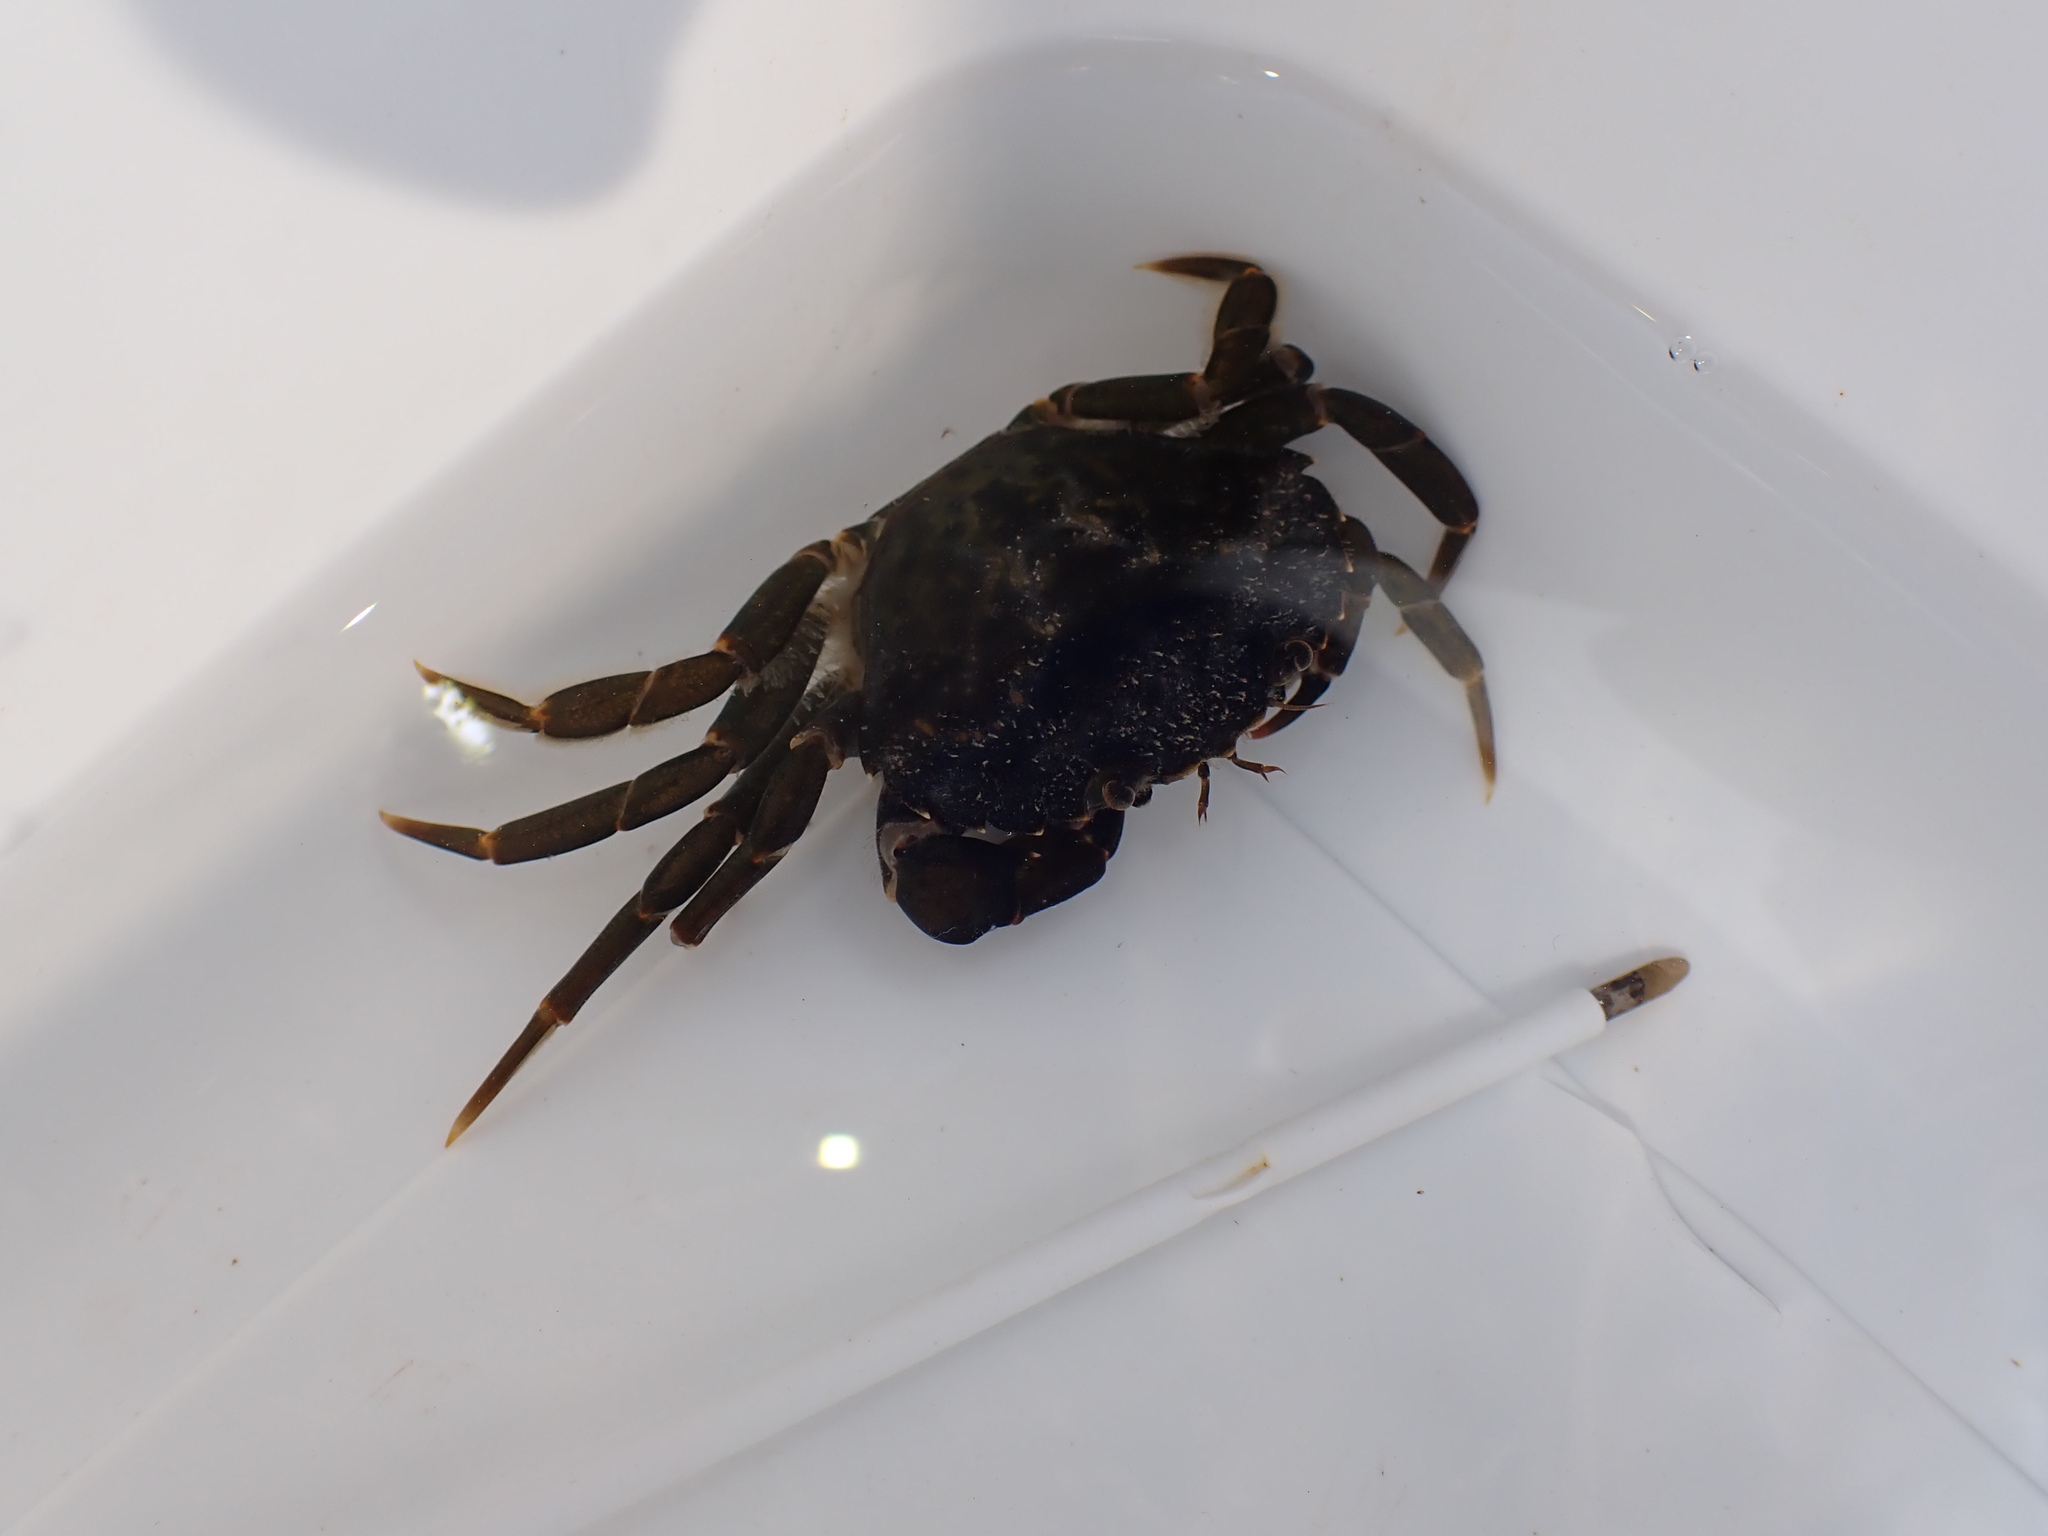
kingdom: Animalia
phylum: Arthropoda
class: Malacostraca
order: Decapoda
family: Carcinidae
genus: Carcinus
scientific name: Carcinus maenas
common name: European green crab
